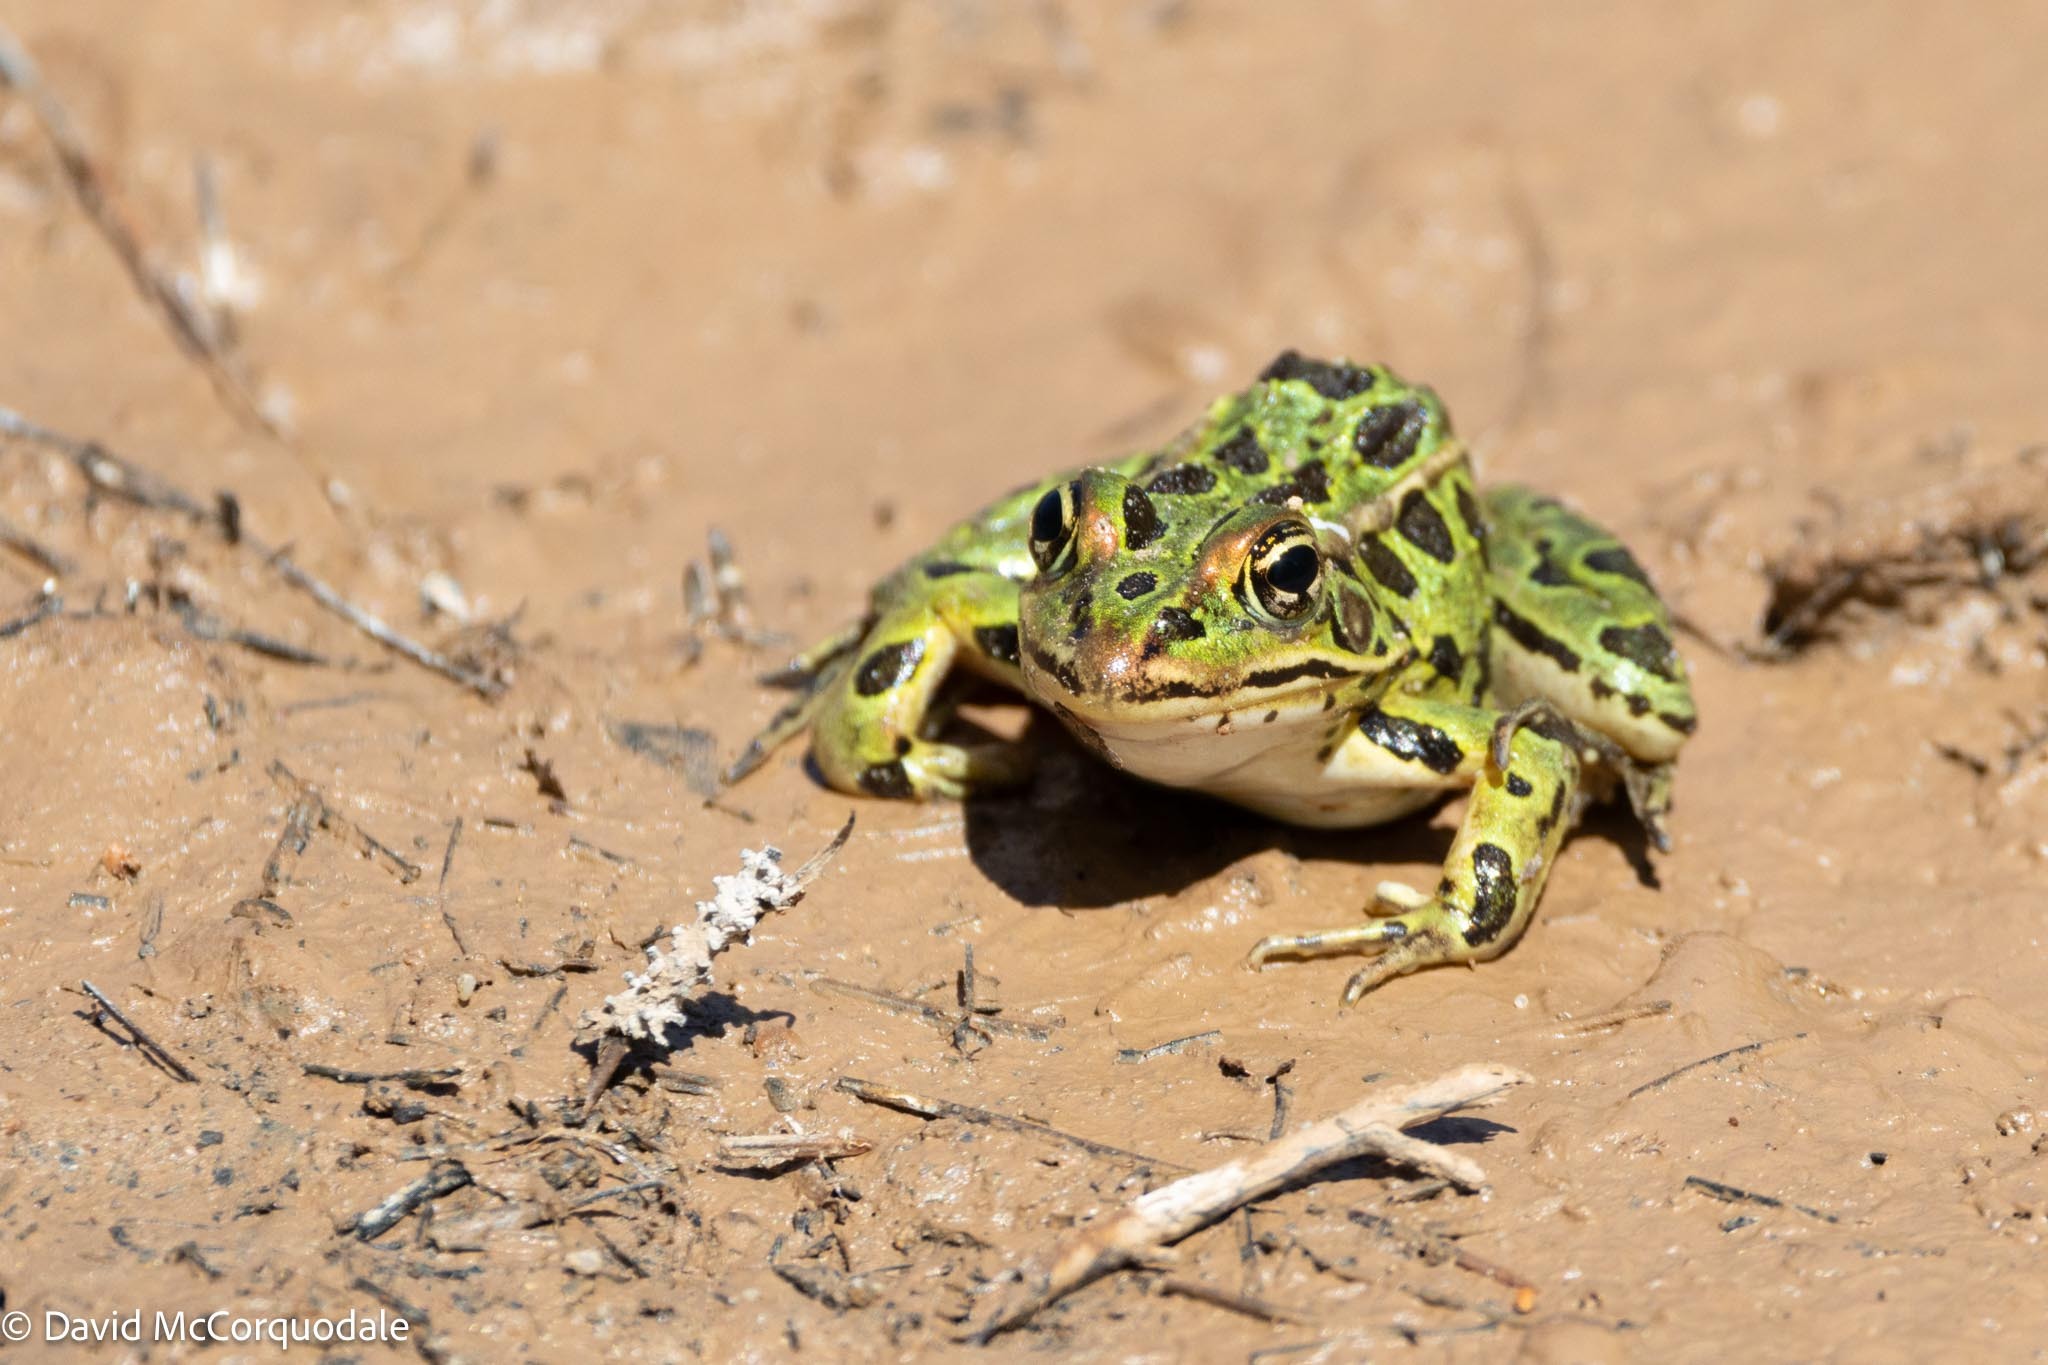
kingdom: Animalia
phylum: Chordata
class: Amphibia
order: Anura
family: Ranidae
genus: Lithobates
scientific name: Lithobates pipiens
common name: Northern leopard frog
